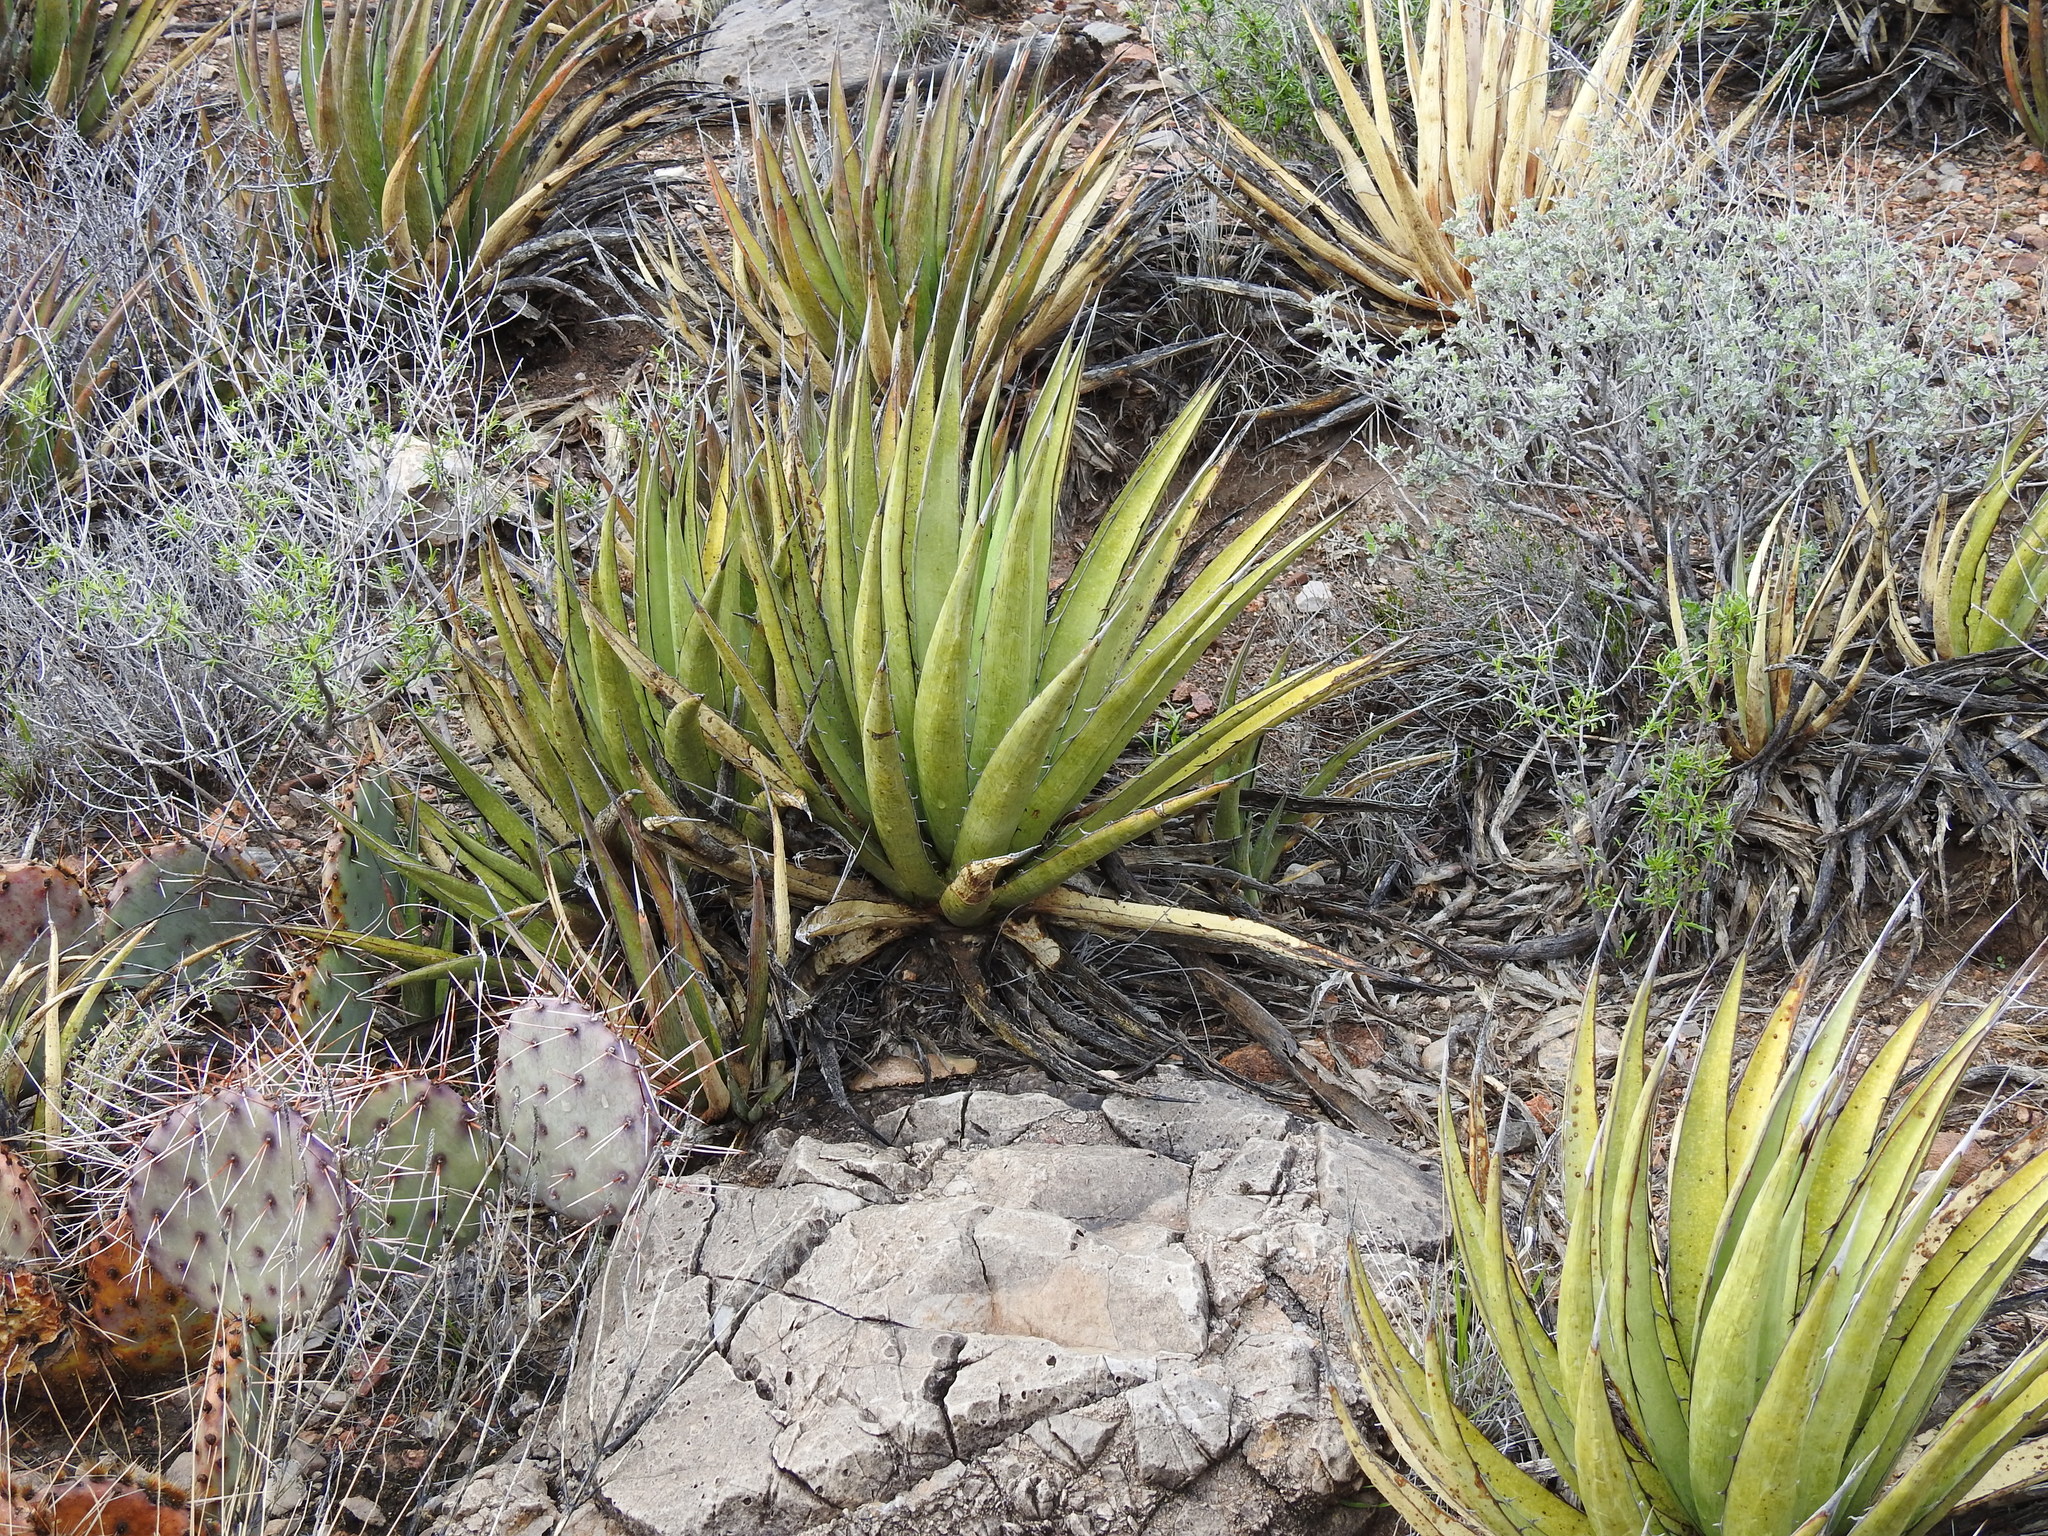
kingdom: Plantae
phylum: Tracheophyta
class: Liliopsida
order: Asparagales
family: Asparagaceae
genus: Agave
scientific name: Agave lechuguilla
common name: Lecheguilla agave
